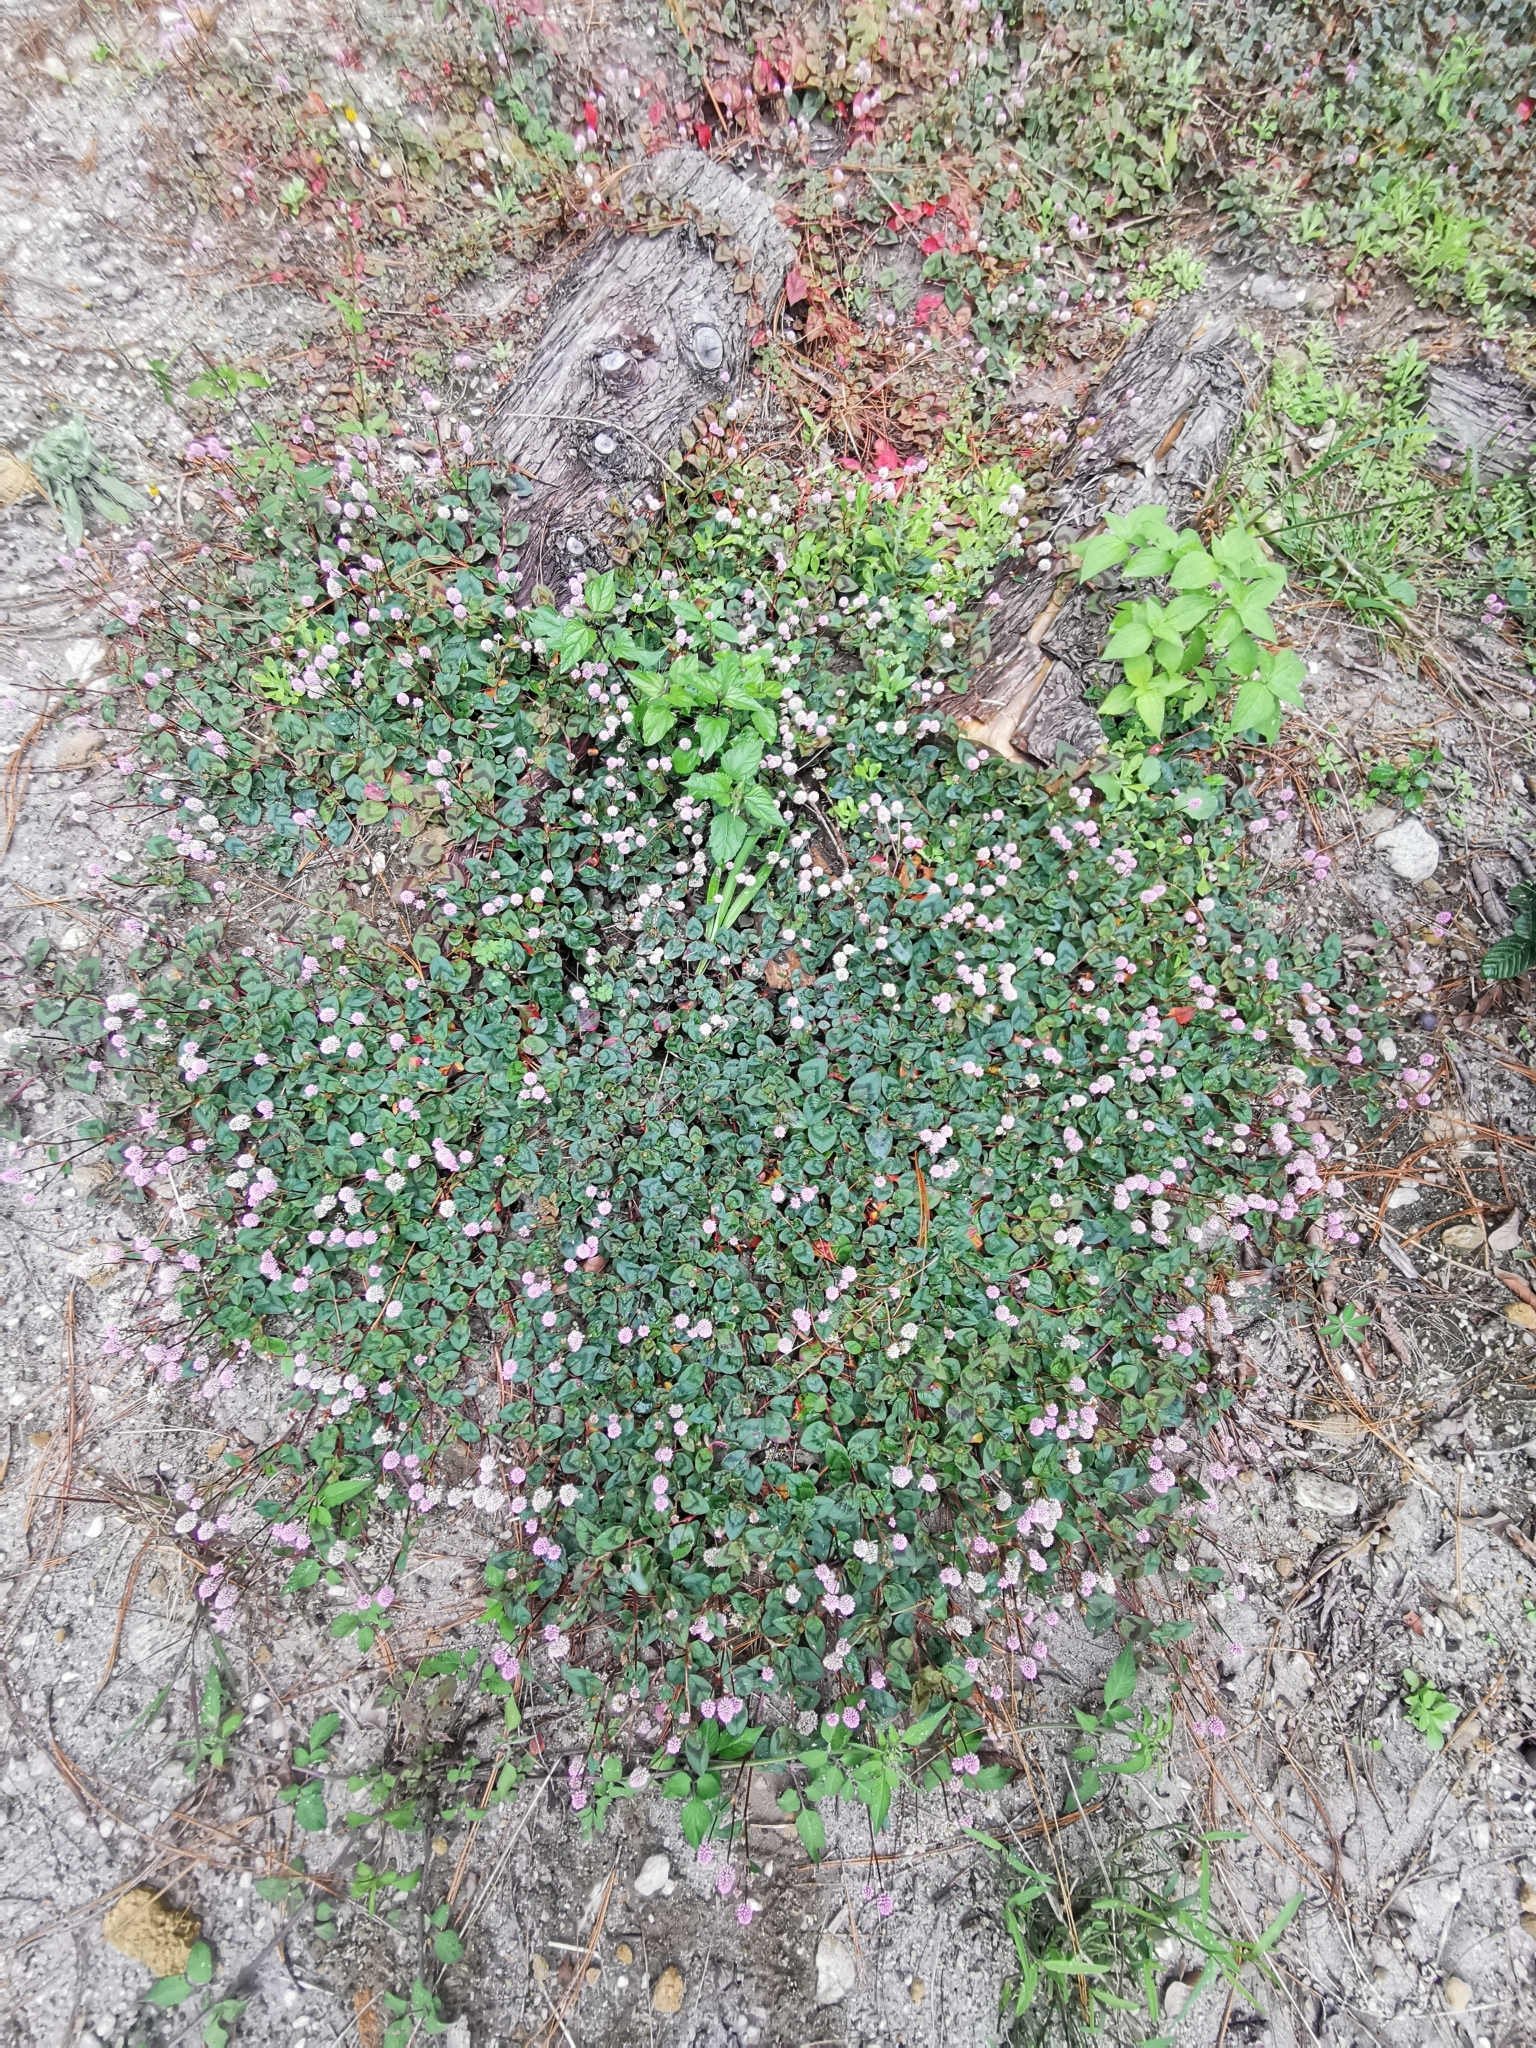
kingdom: Plantae
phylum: Tracheophyta
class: Magnoliopsida
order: Caryophyllales
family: Polygonaceae
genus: Persicaria
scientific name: Persicaria capitata
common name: Pinkhead smartweed
